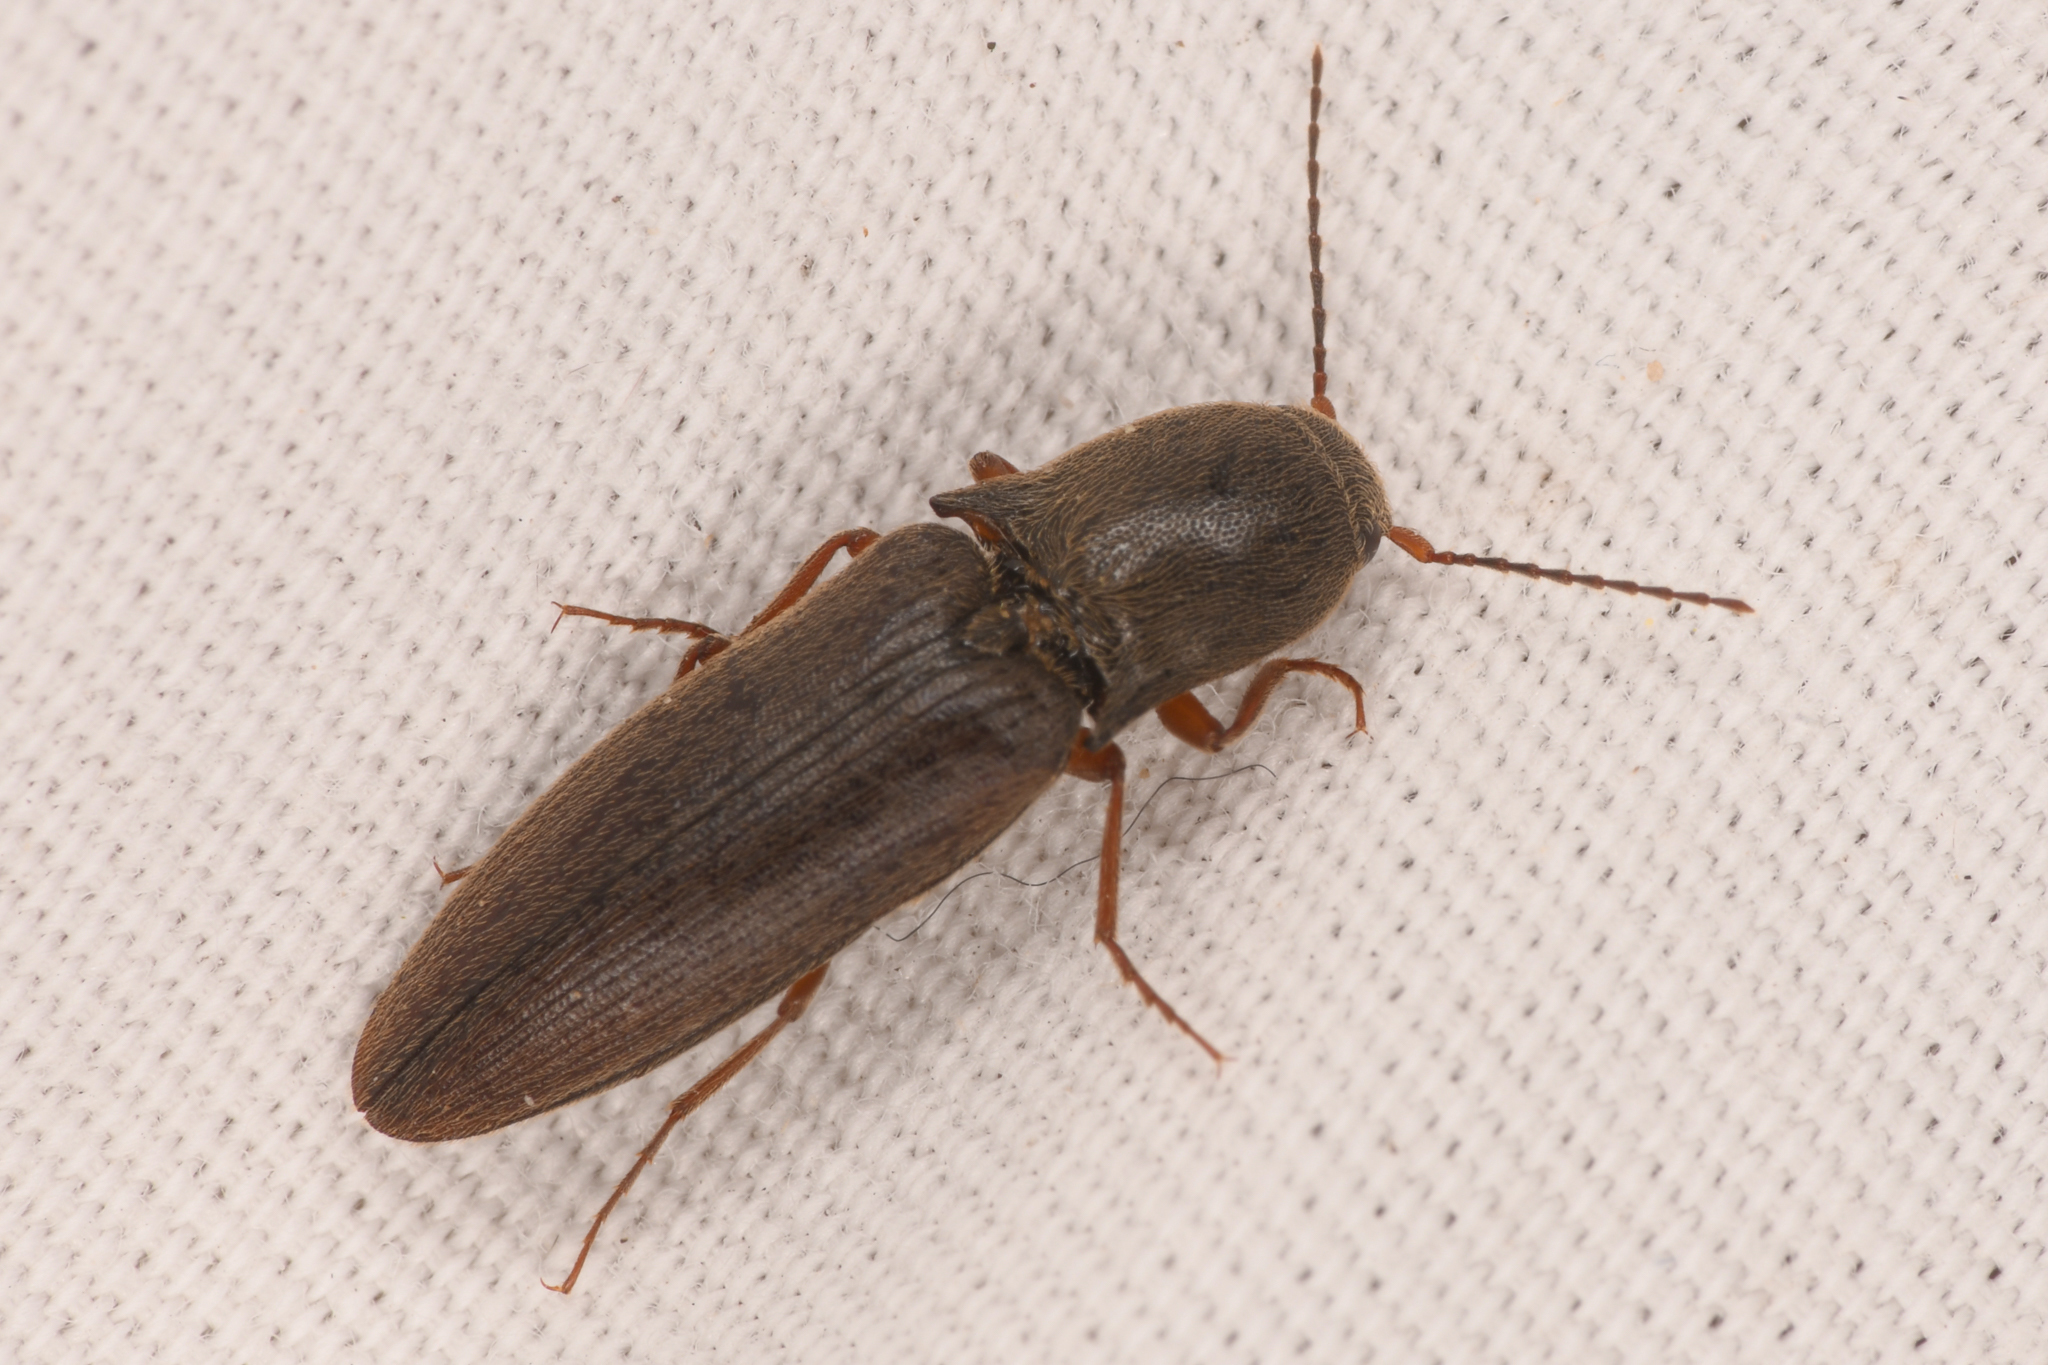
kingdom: Animalia
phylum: Arthropoda
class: Insecta
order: Coleoptera
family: Elateridae
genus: Agriotes
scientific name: Agriotes ferrugineipennis
